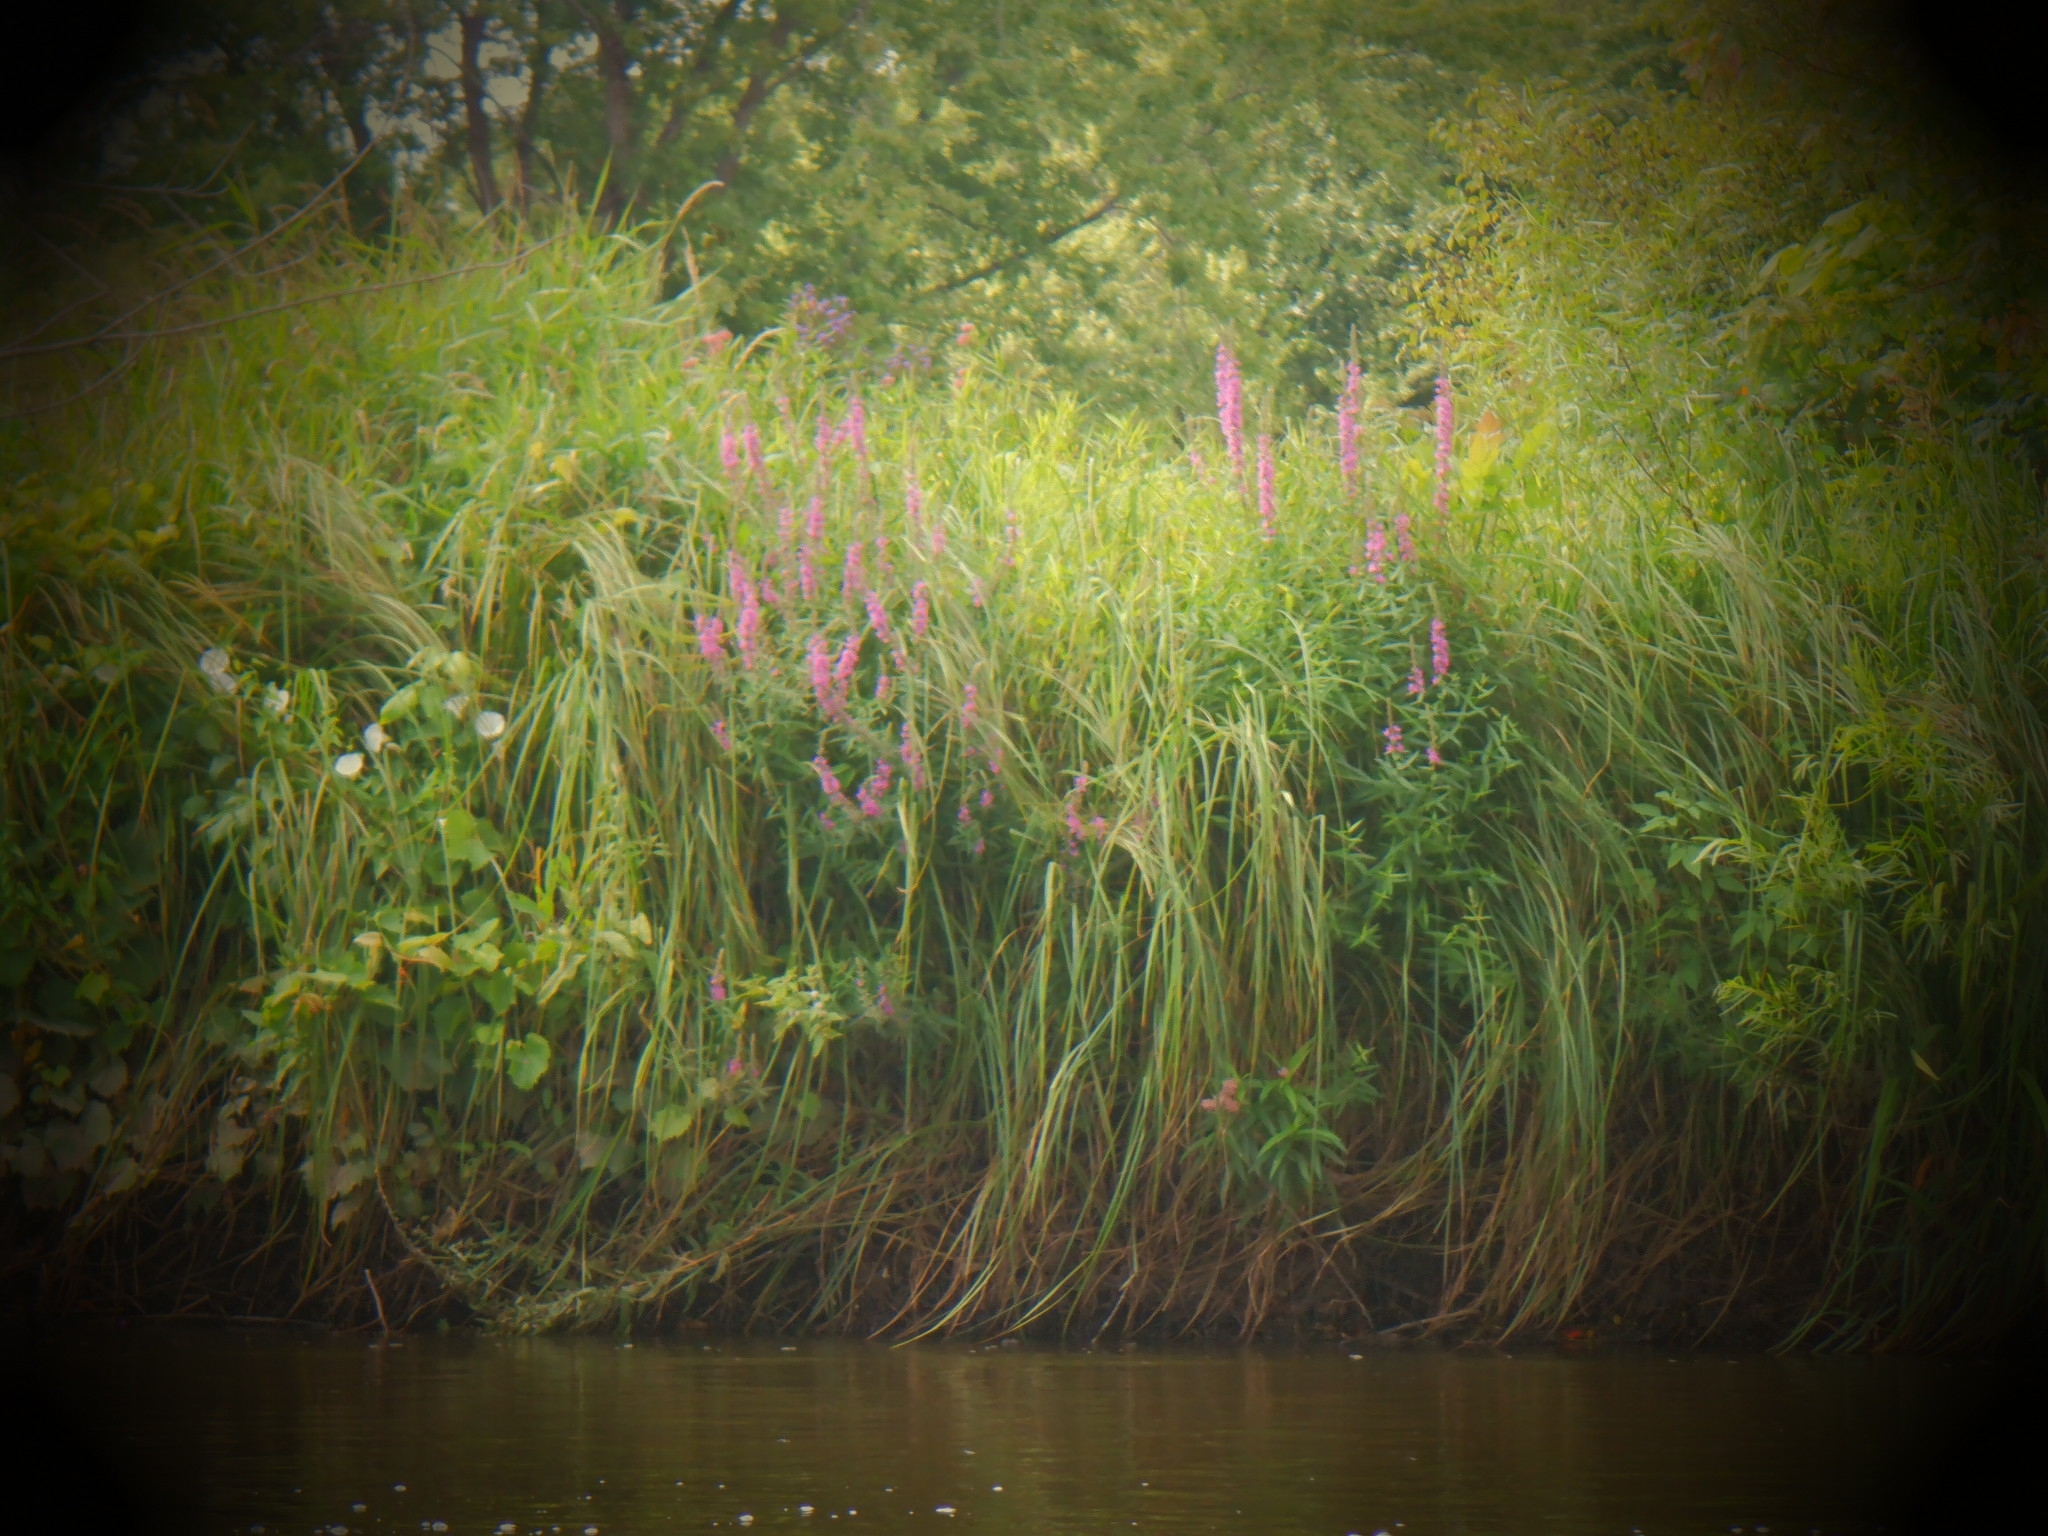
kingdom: Plantae
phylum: Tracheophyta
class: Magnoliopsida
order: Myrtales
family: Lythraceae
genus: Lythrum
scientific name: Lythrum salicaria
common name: Purple loosestrife
